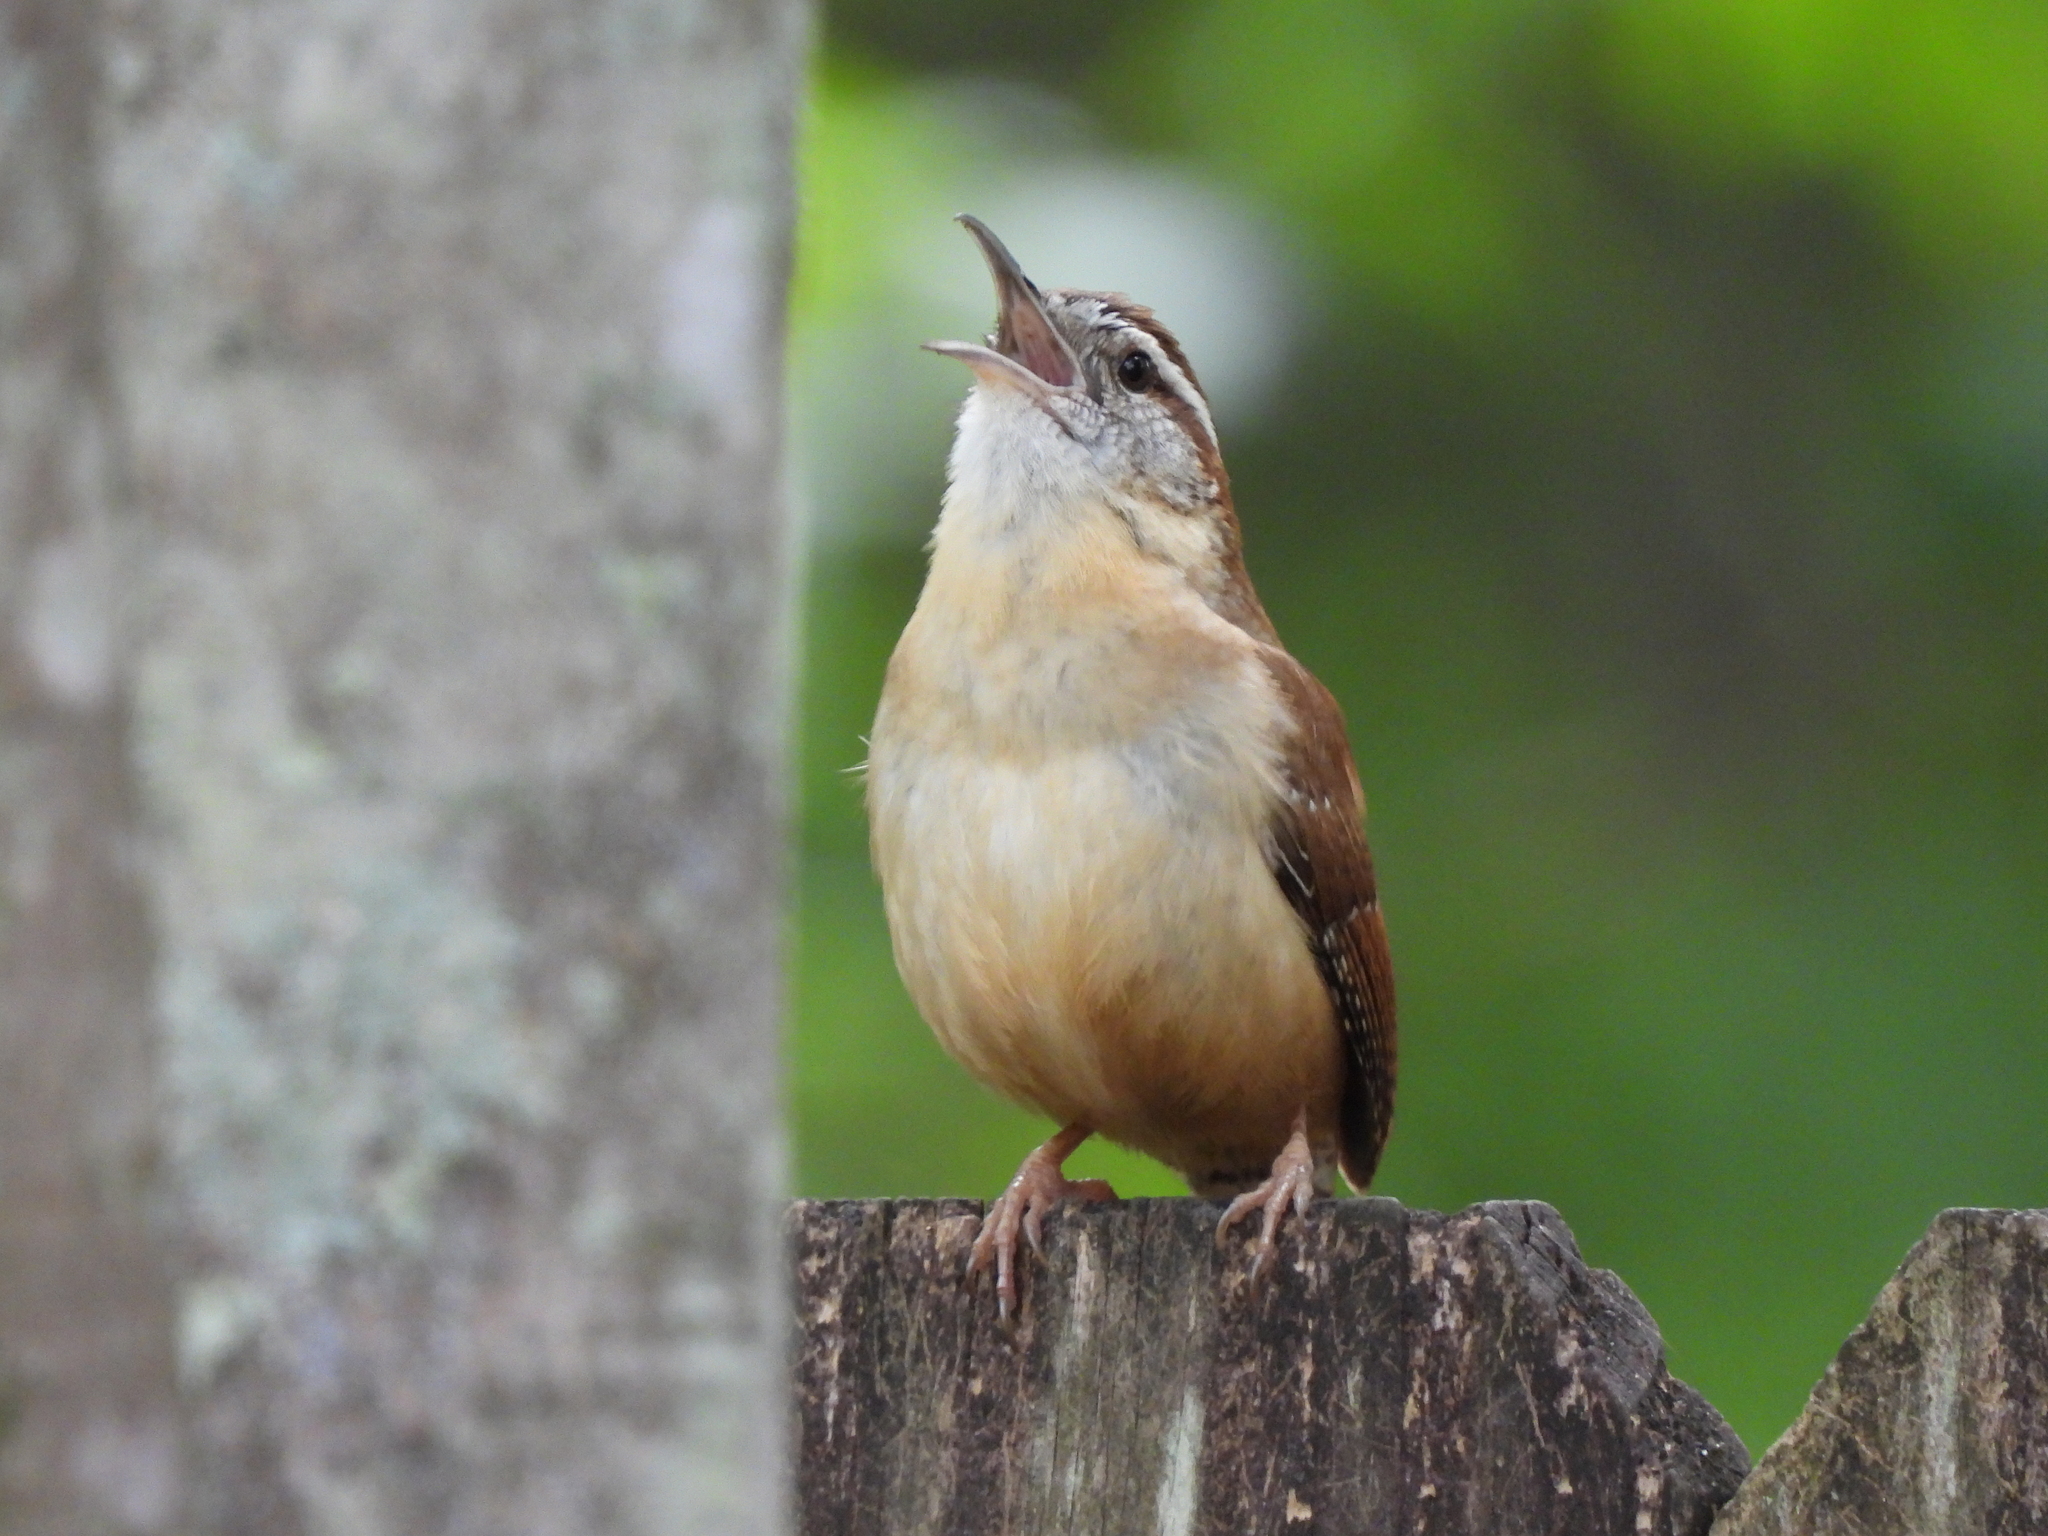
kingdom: Animalia
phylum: Chordata
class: Aves
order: Passeriformes
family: Troglodytidae
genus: Thryothorus
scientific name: Thryothorus ludovicianus
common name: Carolina wren
